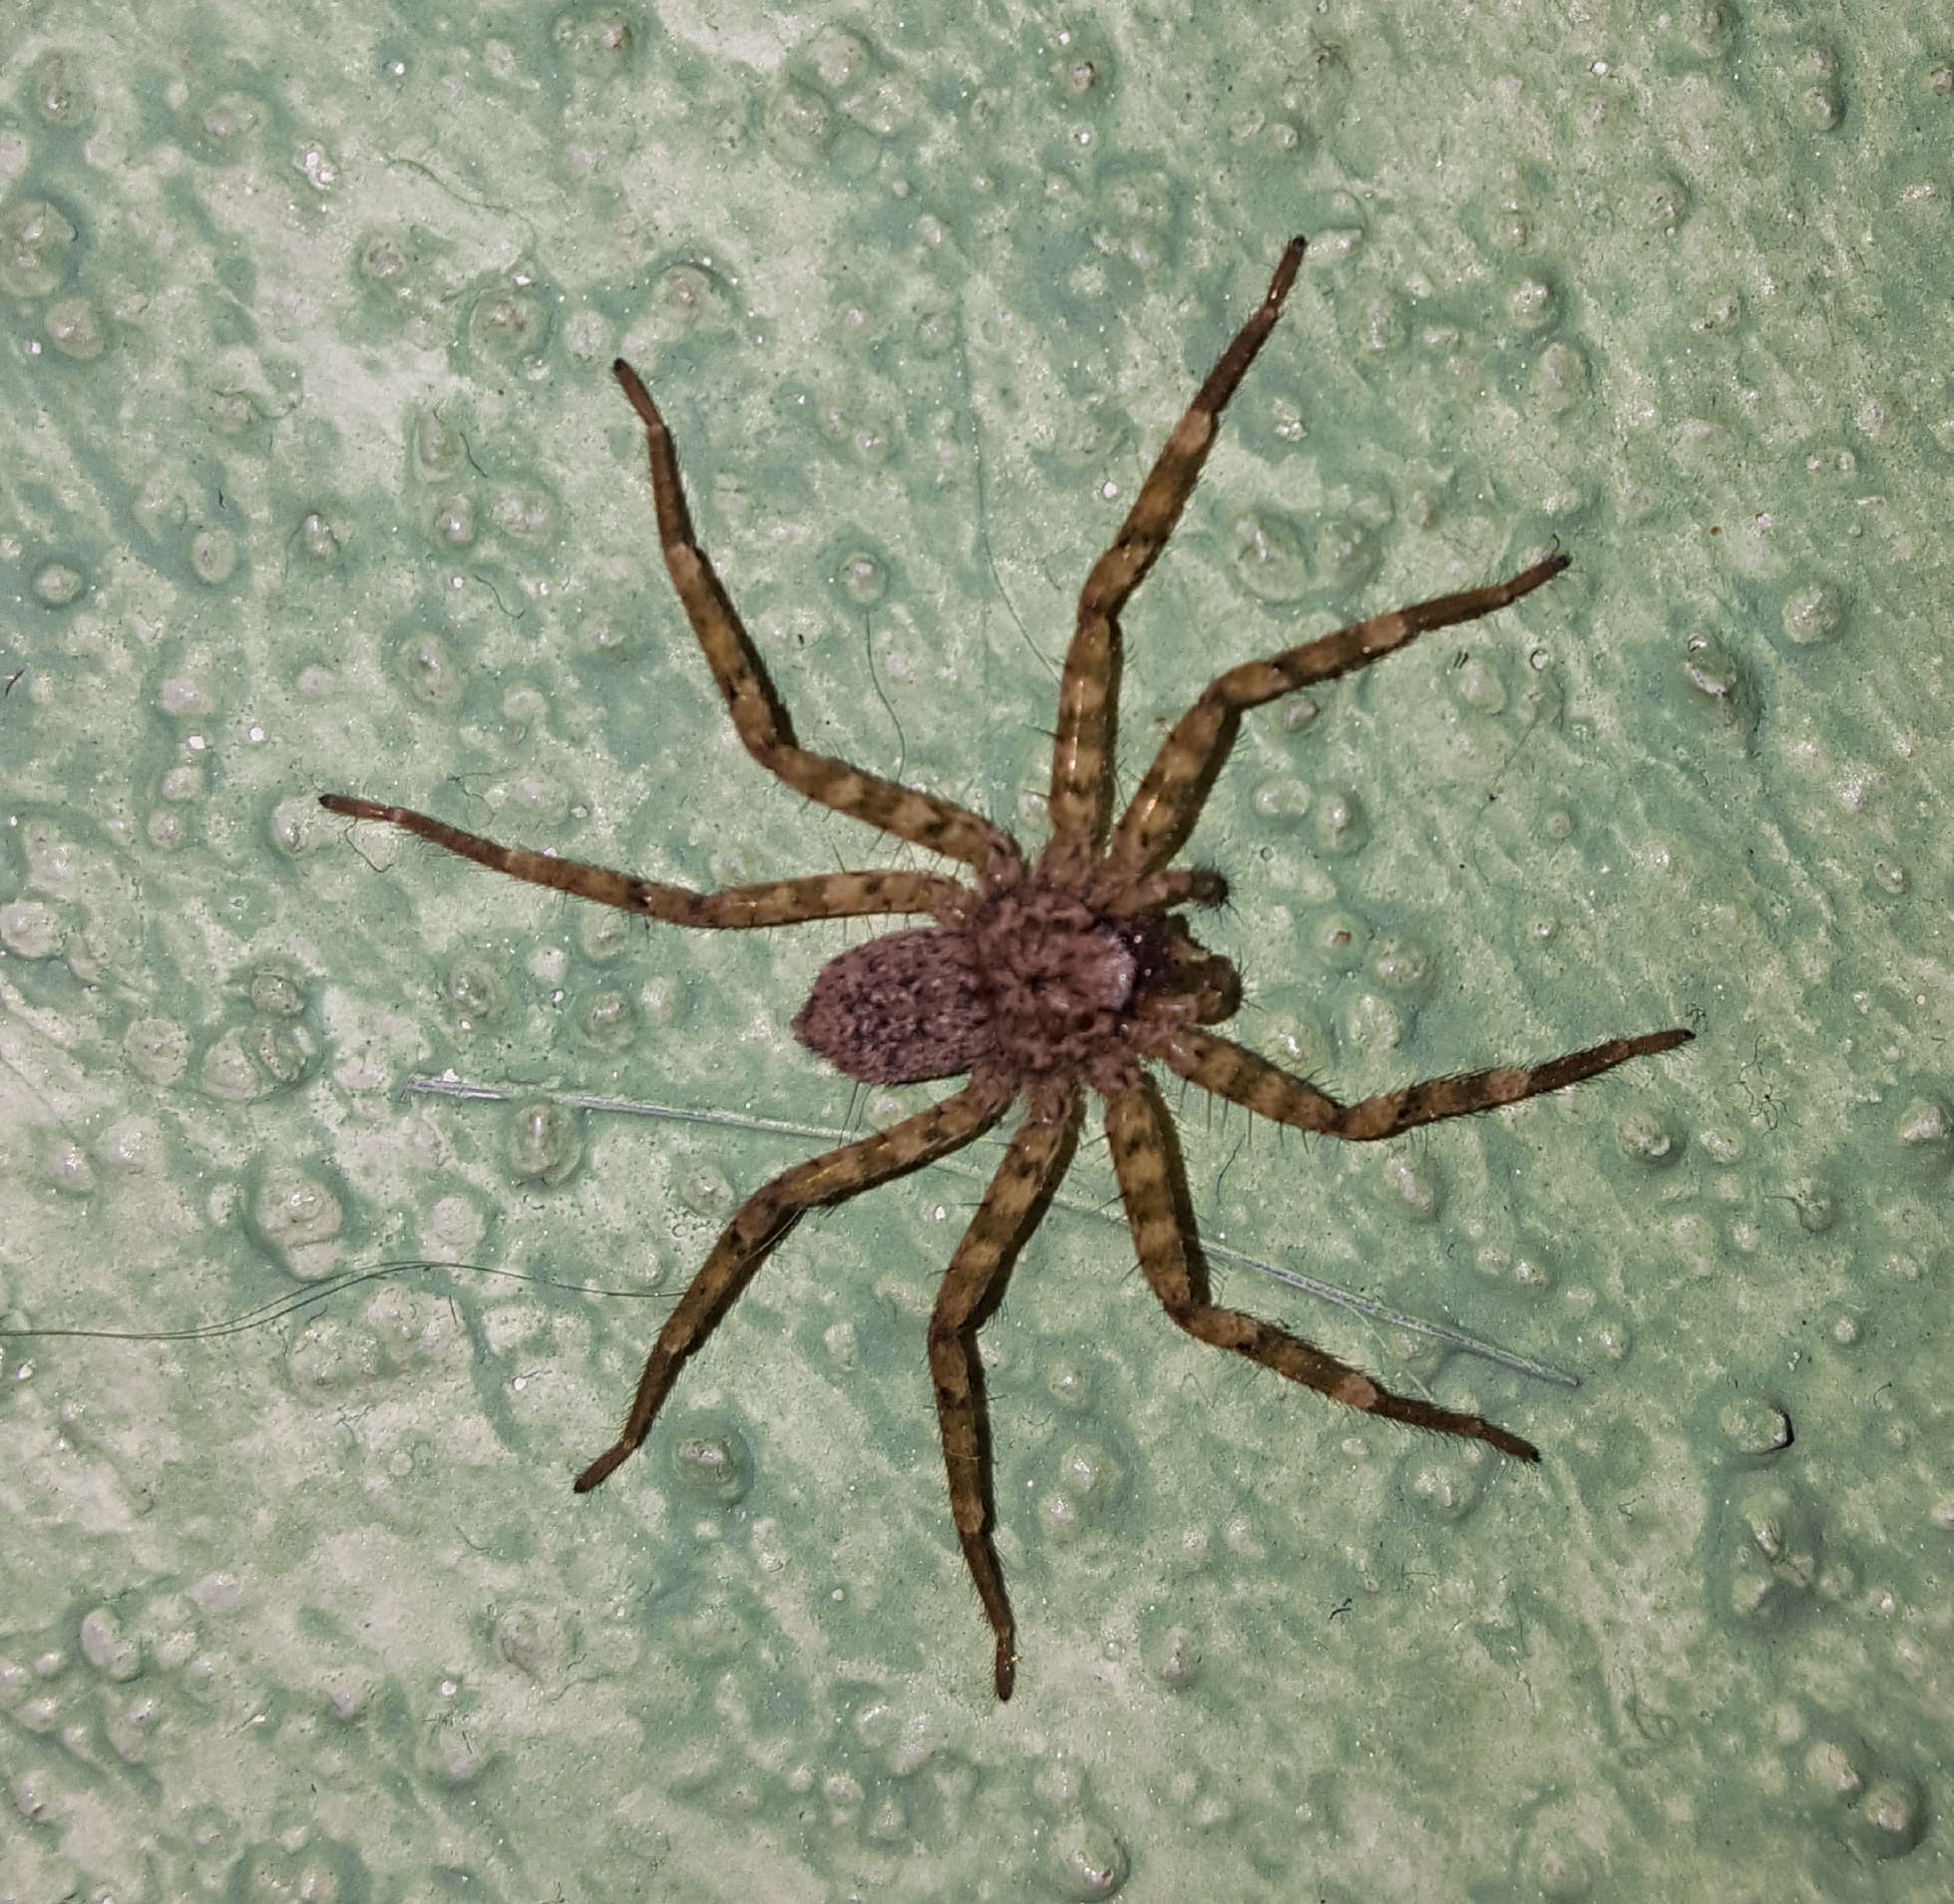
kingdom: Animalia
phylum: Arthropoda
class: Arachnida
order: Araneae
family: Selenopidae
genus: Selenops
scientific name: Selenops nigromaculatus
